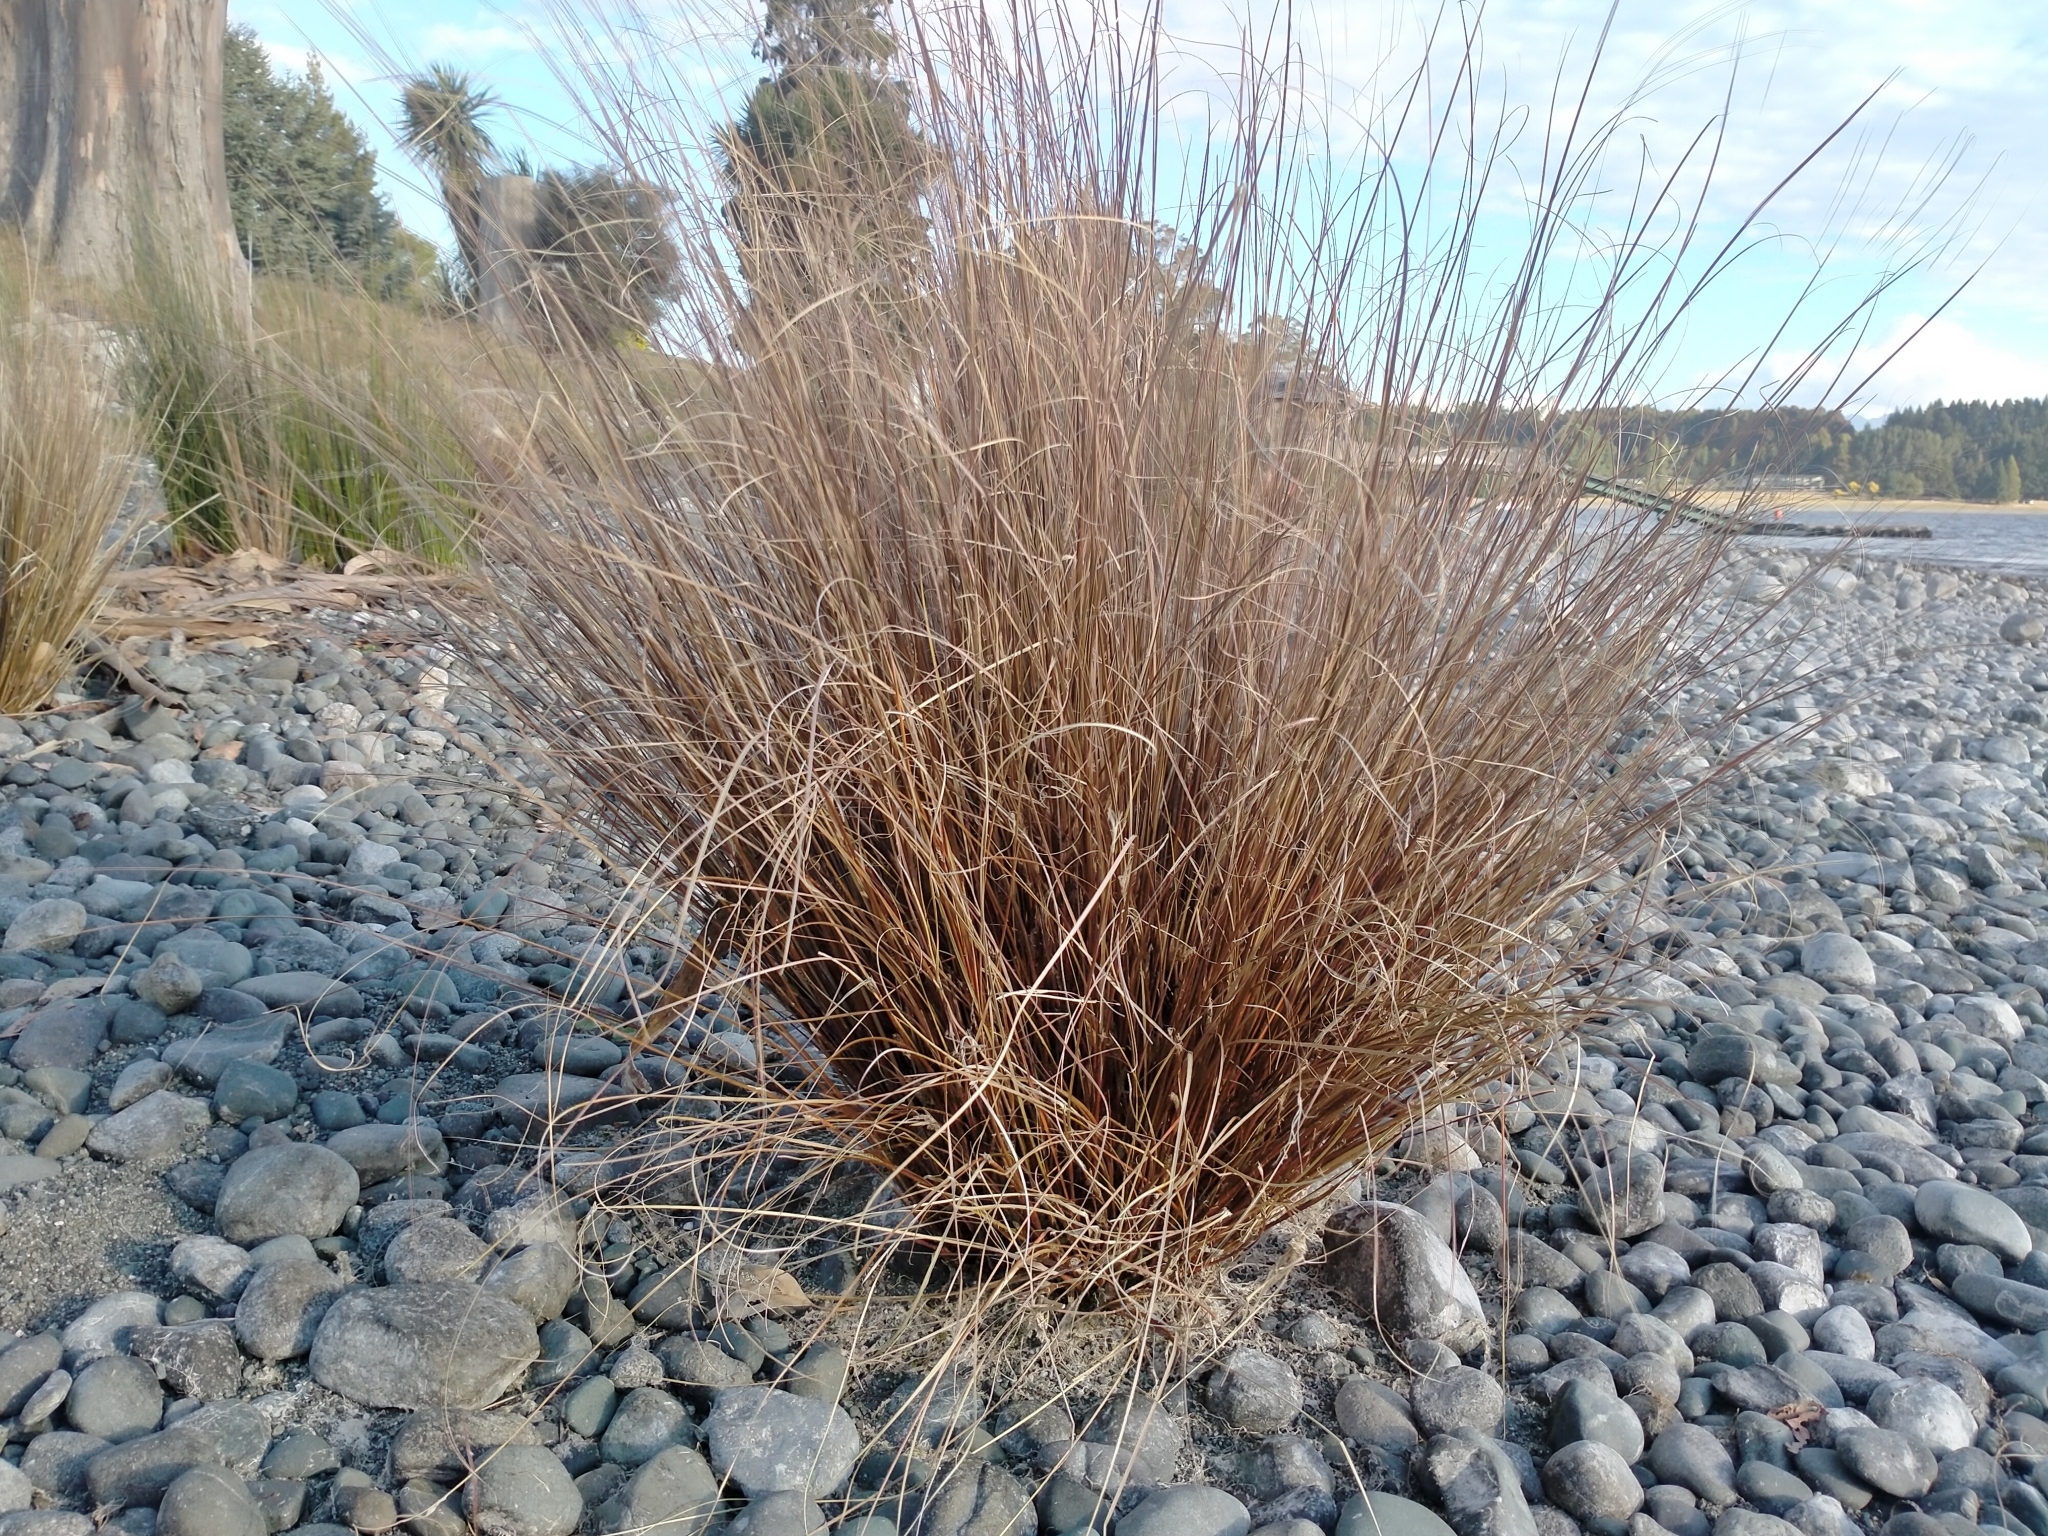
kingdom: Plantae
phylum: Tracheophyta
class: Liliopsida
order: Poales
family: Cyperaceae
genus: Carex
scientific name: Carex buchananii
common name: Leatherleaf sedge
